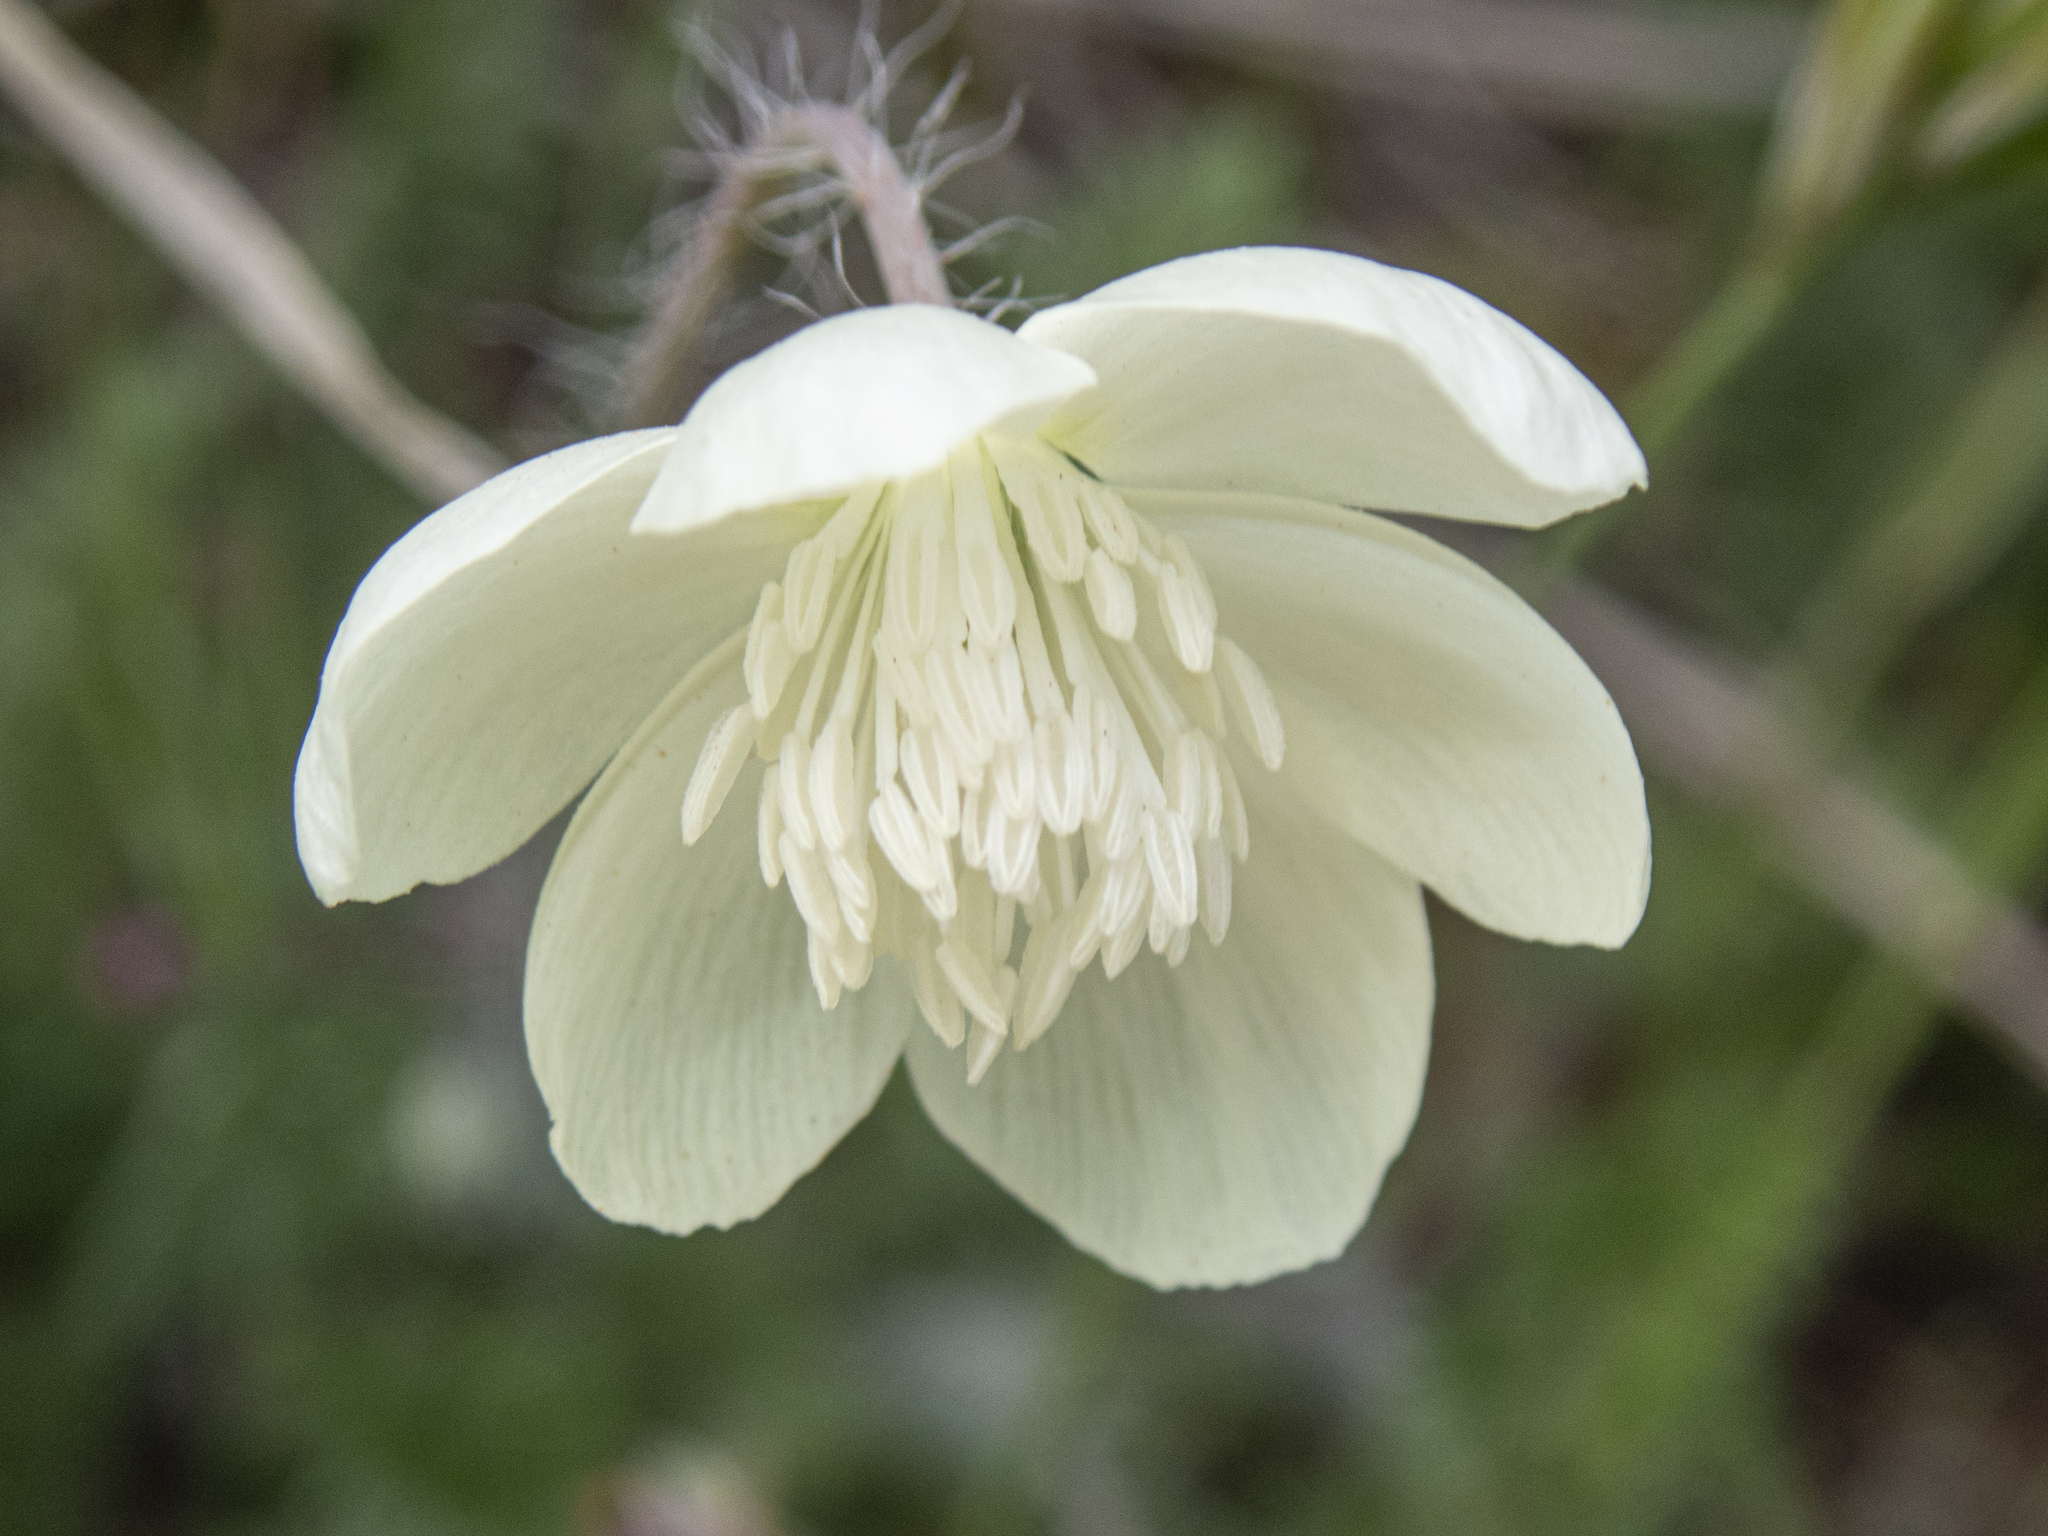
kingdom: Plantae
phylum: Tracheophyta
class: Magnoliopsida
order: Ranunculales
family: Papaveraceae
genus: Platystemon
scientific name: Platystemon californicus
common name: Cream-cups
